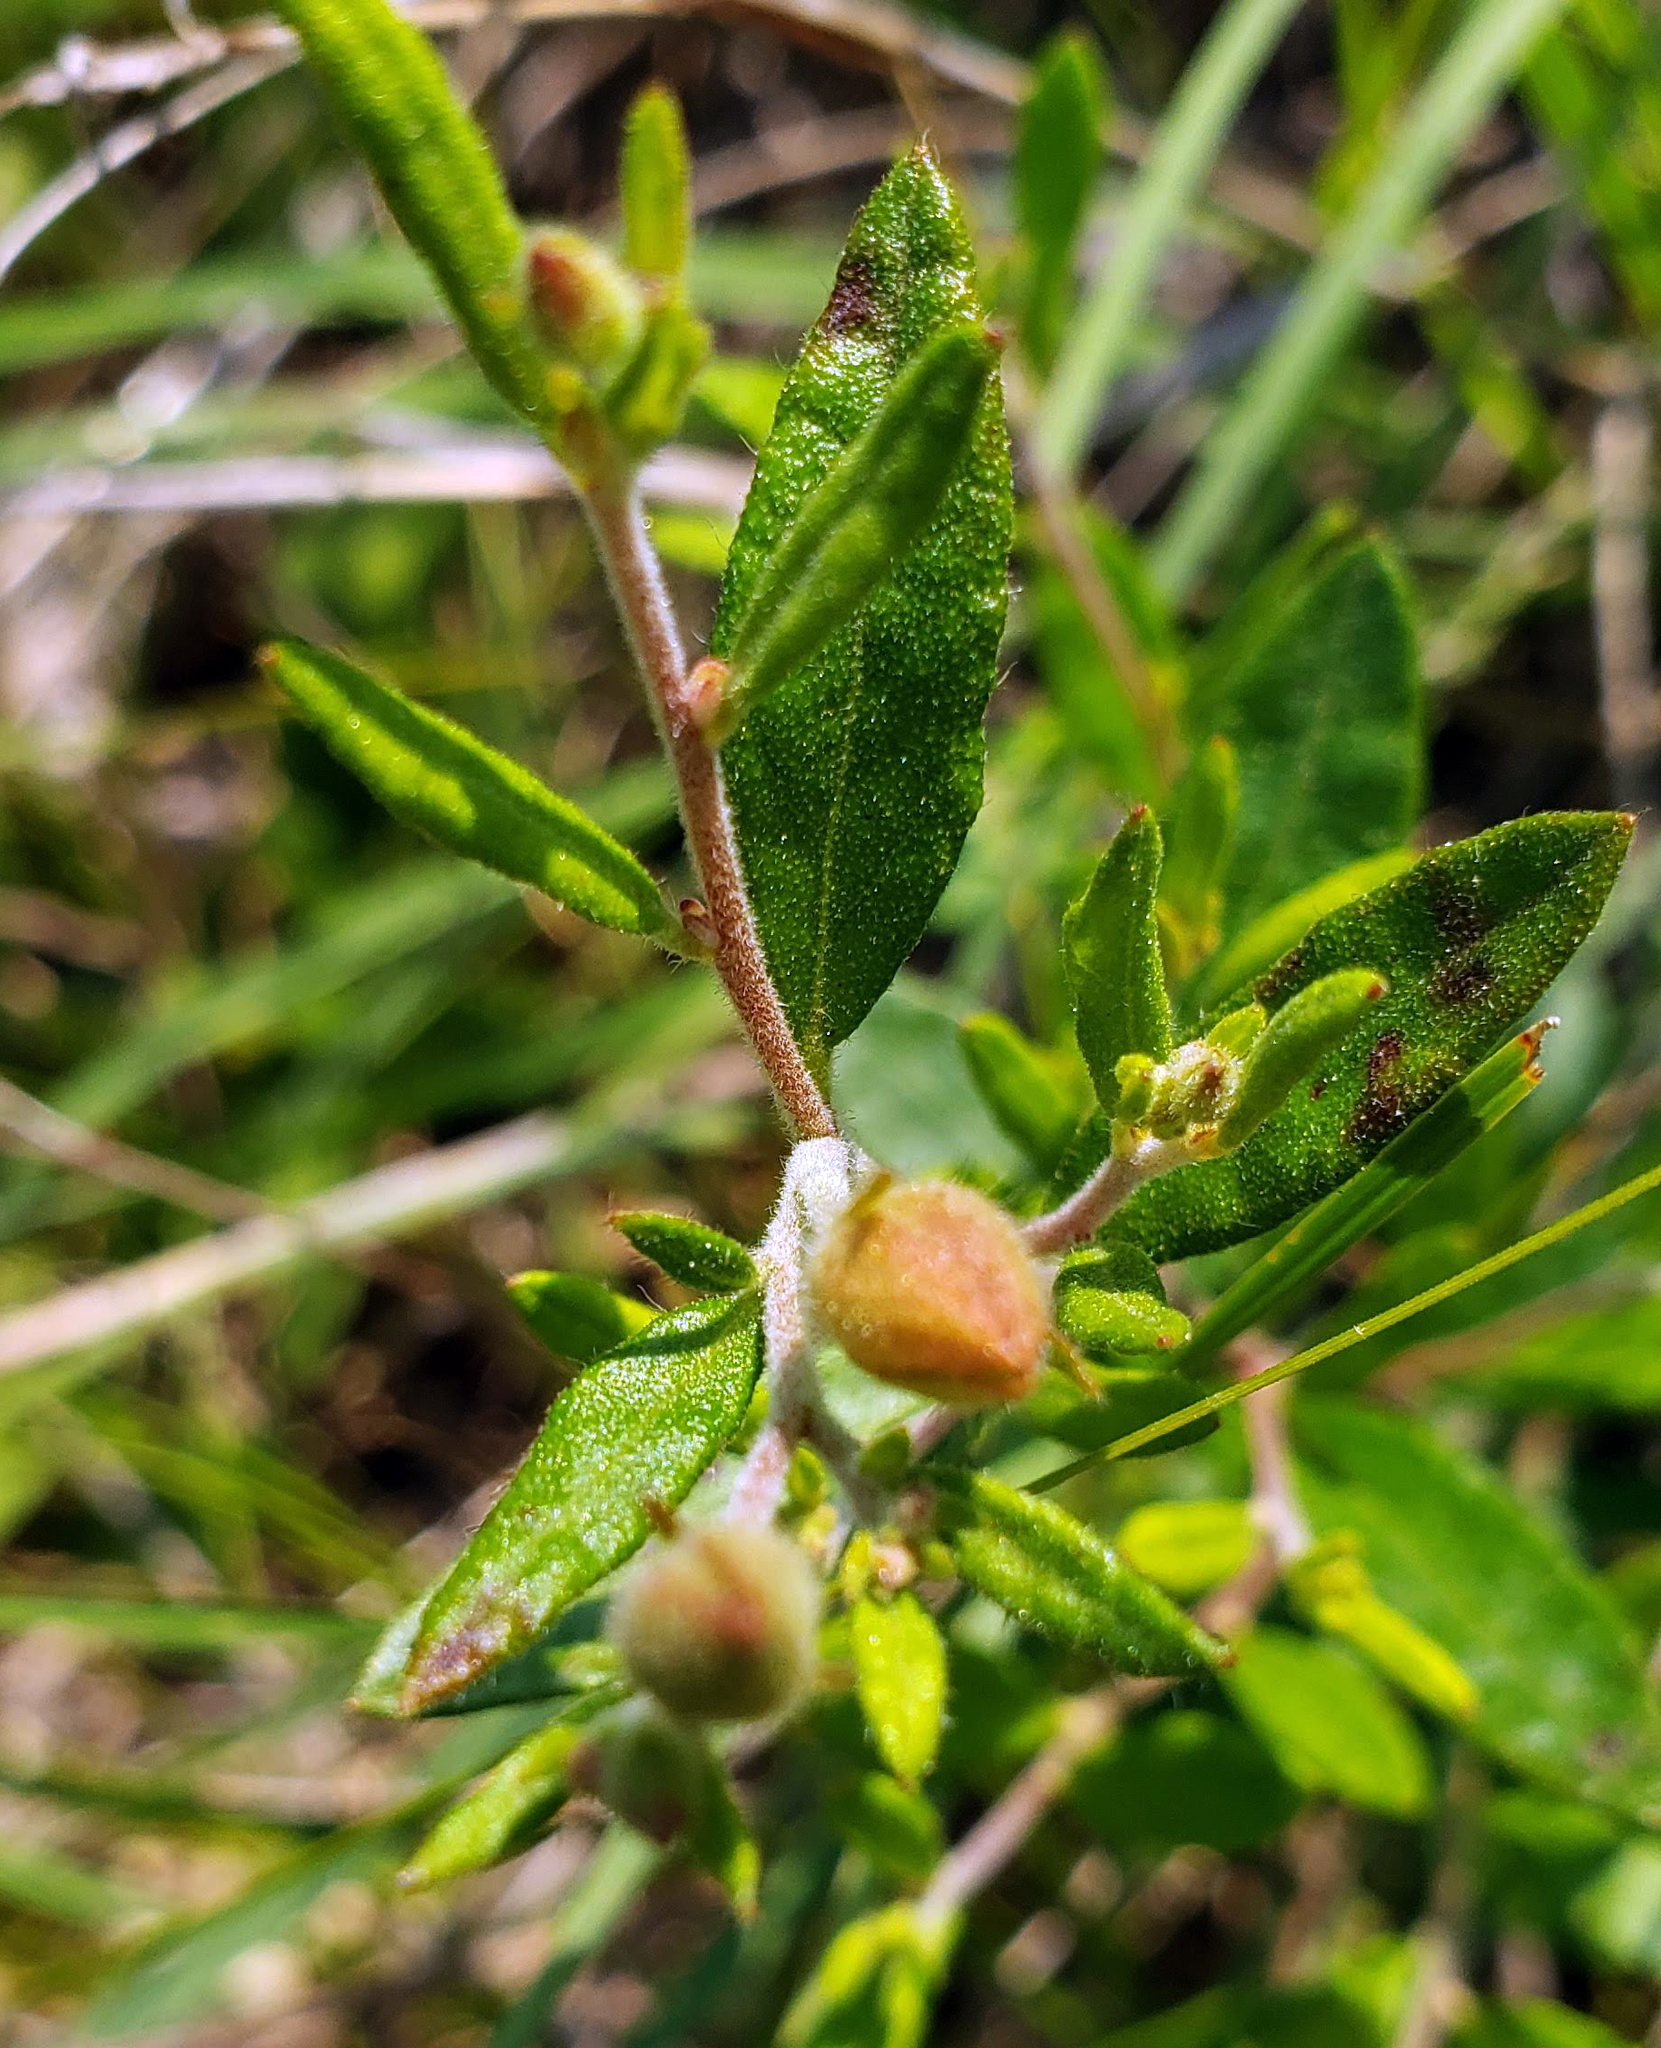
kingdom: Plantae
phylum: Tracheophyta
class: Magnoliopsida
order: Malvales
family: Cistaceae
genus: Crocanthemum
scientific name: Crocanthemum canadense
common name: Canada frostweed
